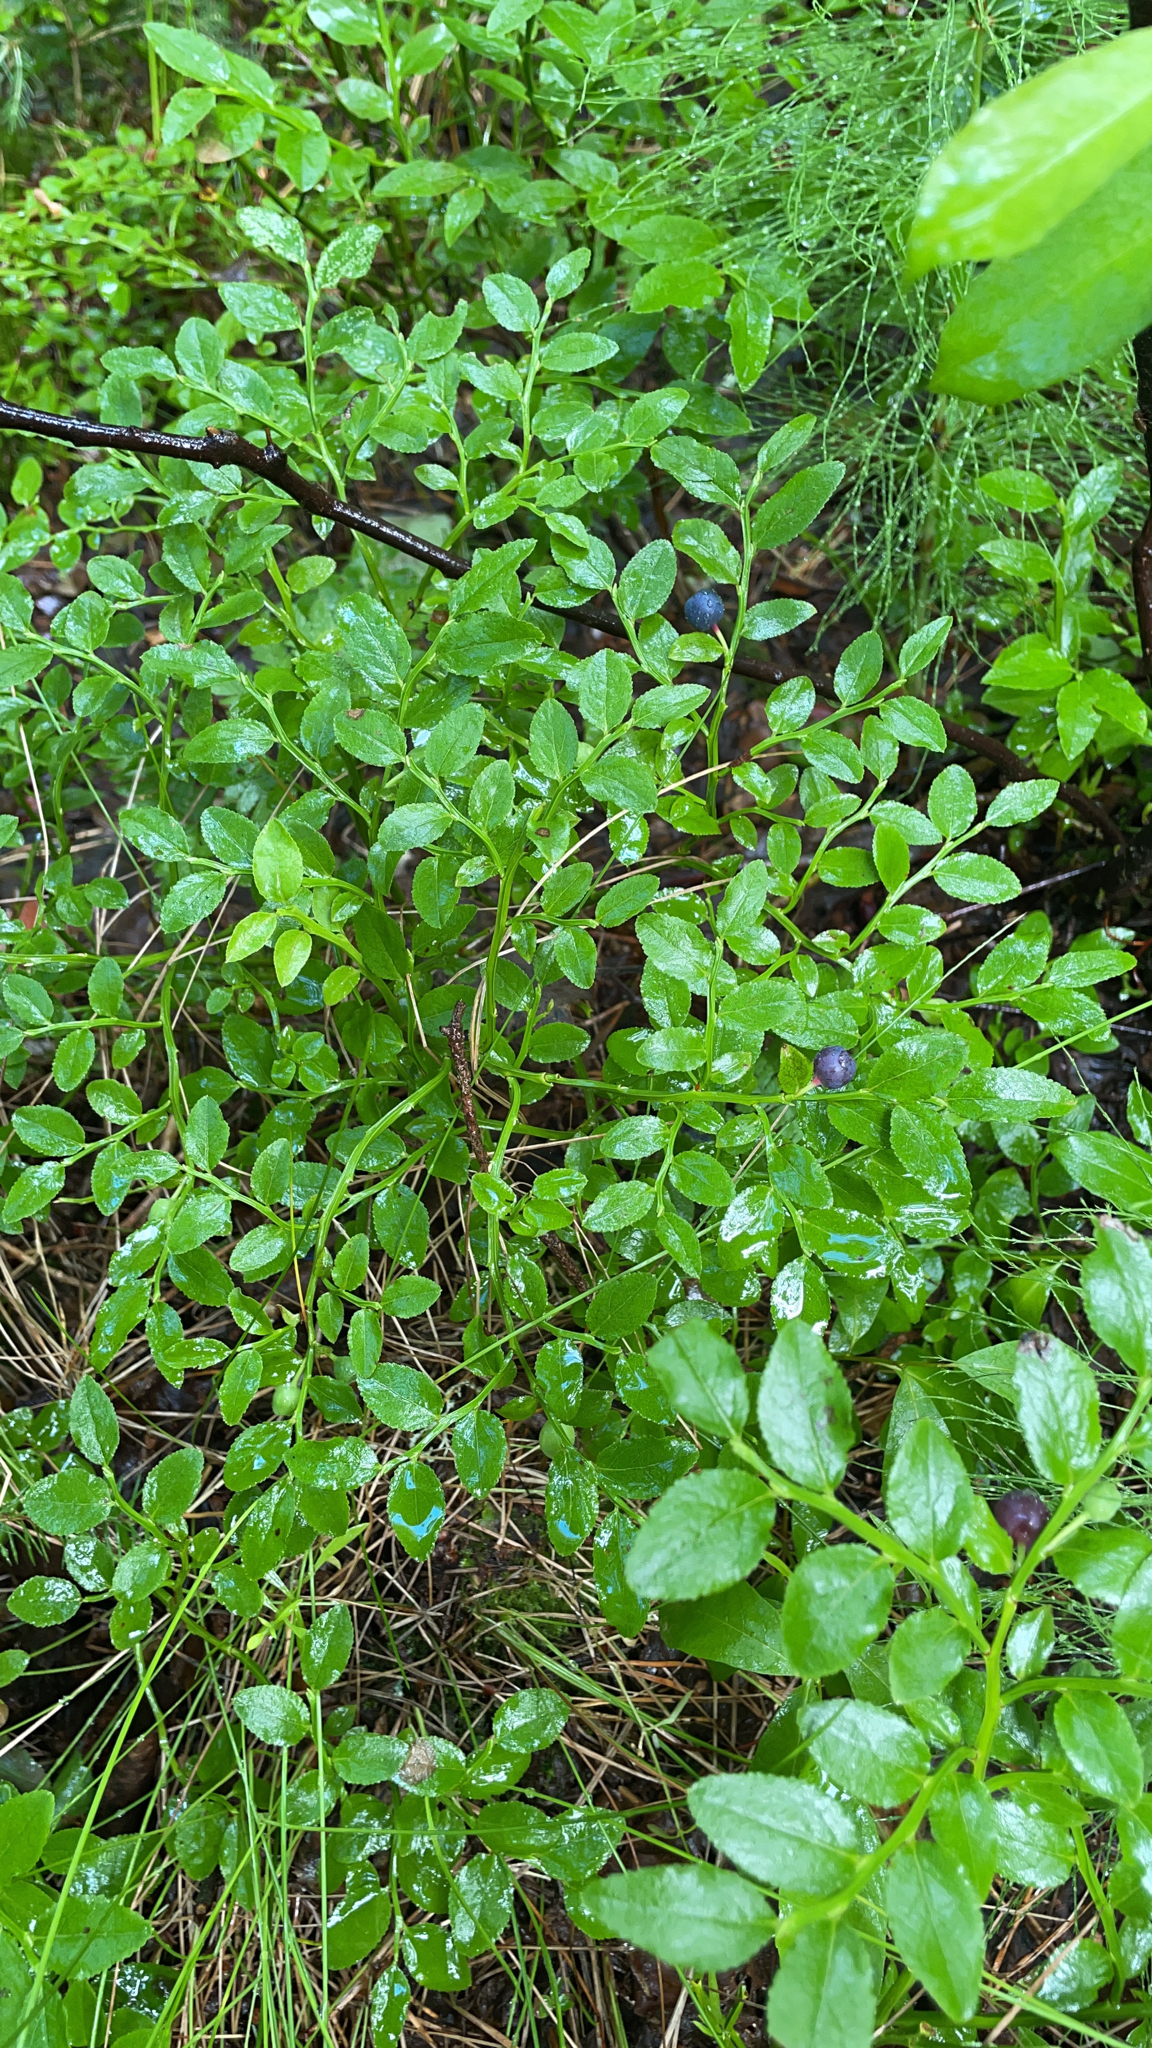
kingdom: Plantae
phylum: Tracheophyta
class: Magnoliopsida
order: Ericales
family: Ericaceae
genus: Vaccinium
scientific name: Vaccinium myrtillus
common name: Bilberry
